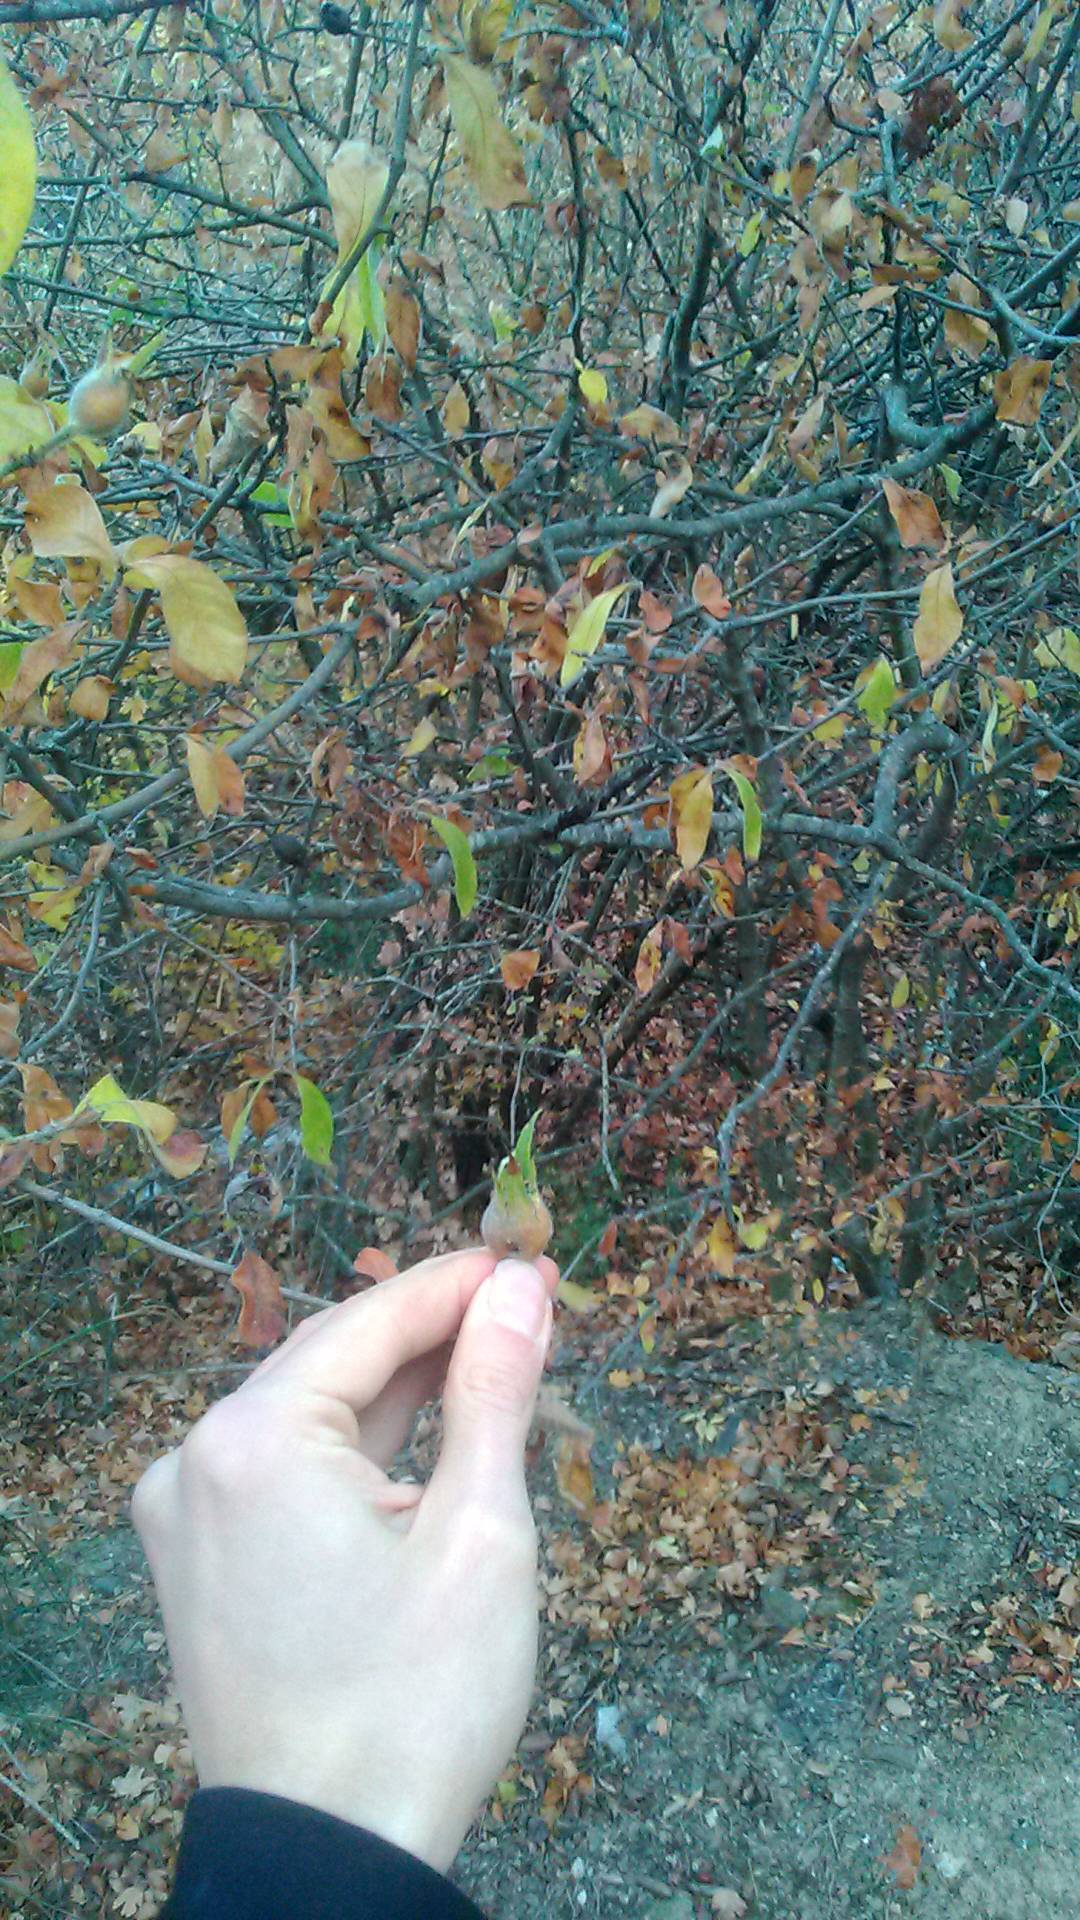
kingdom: Plantae
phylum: Tracheophyta
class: Magnoliopsida
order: Rosales
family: Rosaceae
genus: Mespilus
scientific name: Mespilus germanica
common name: Medlar
